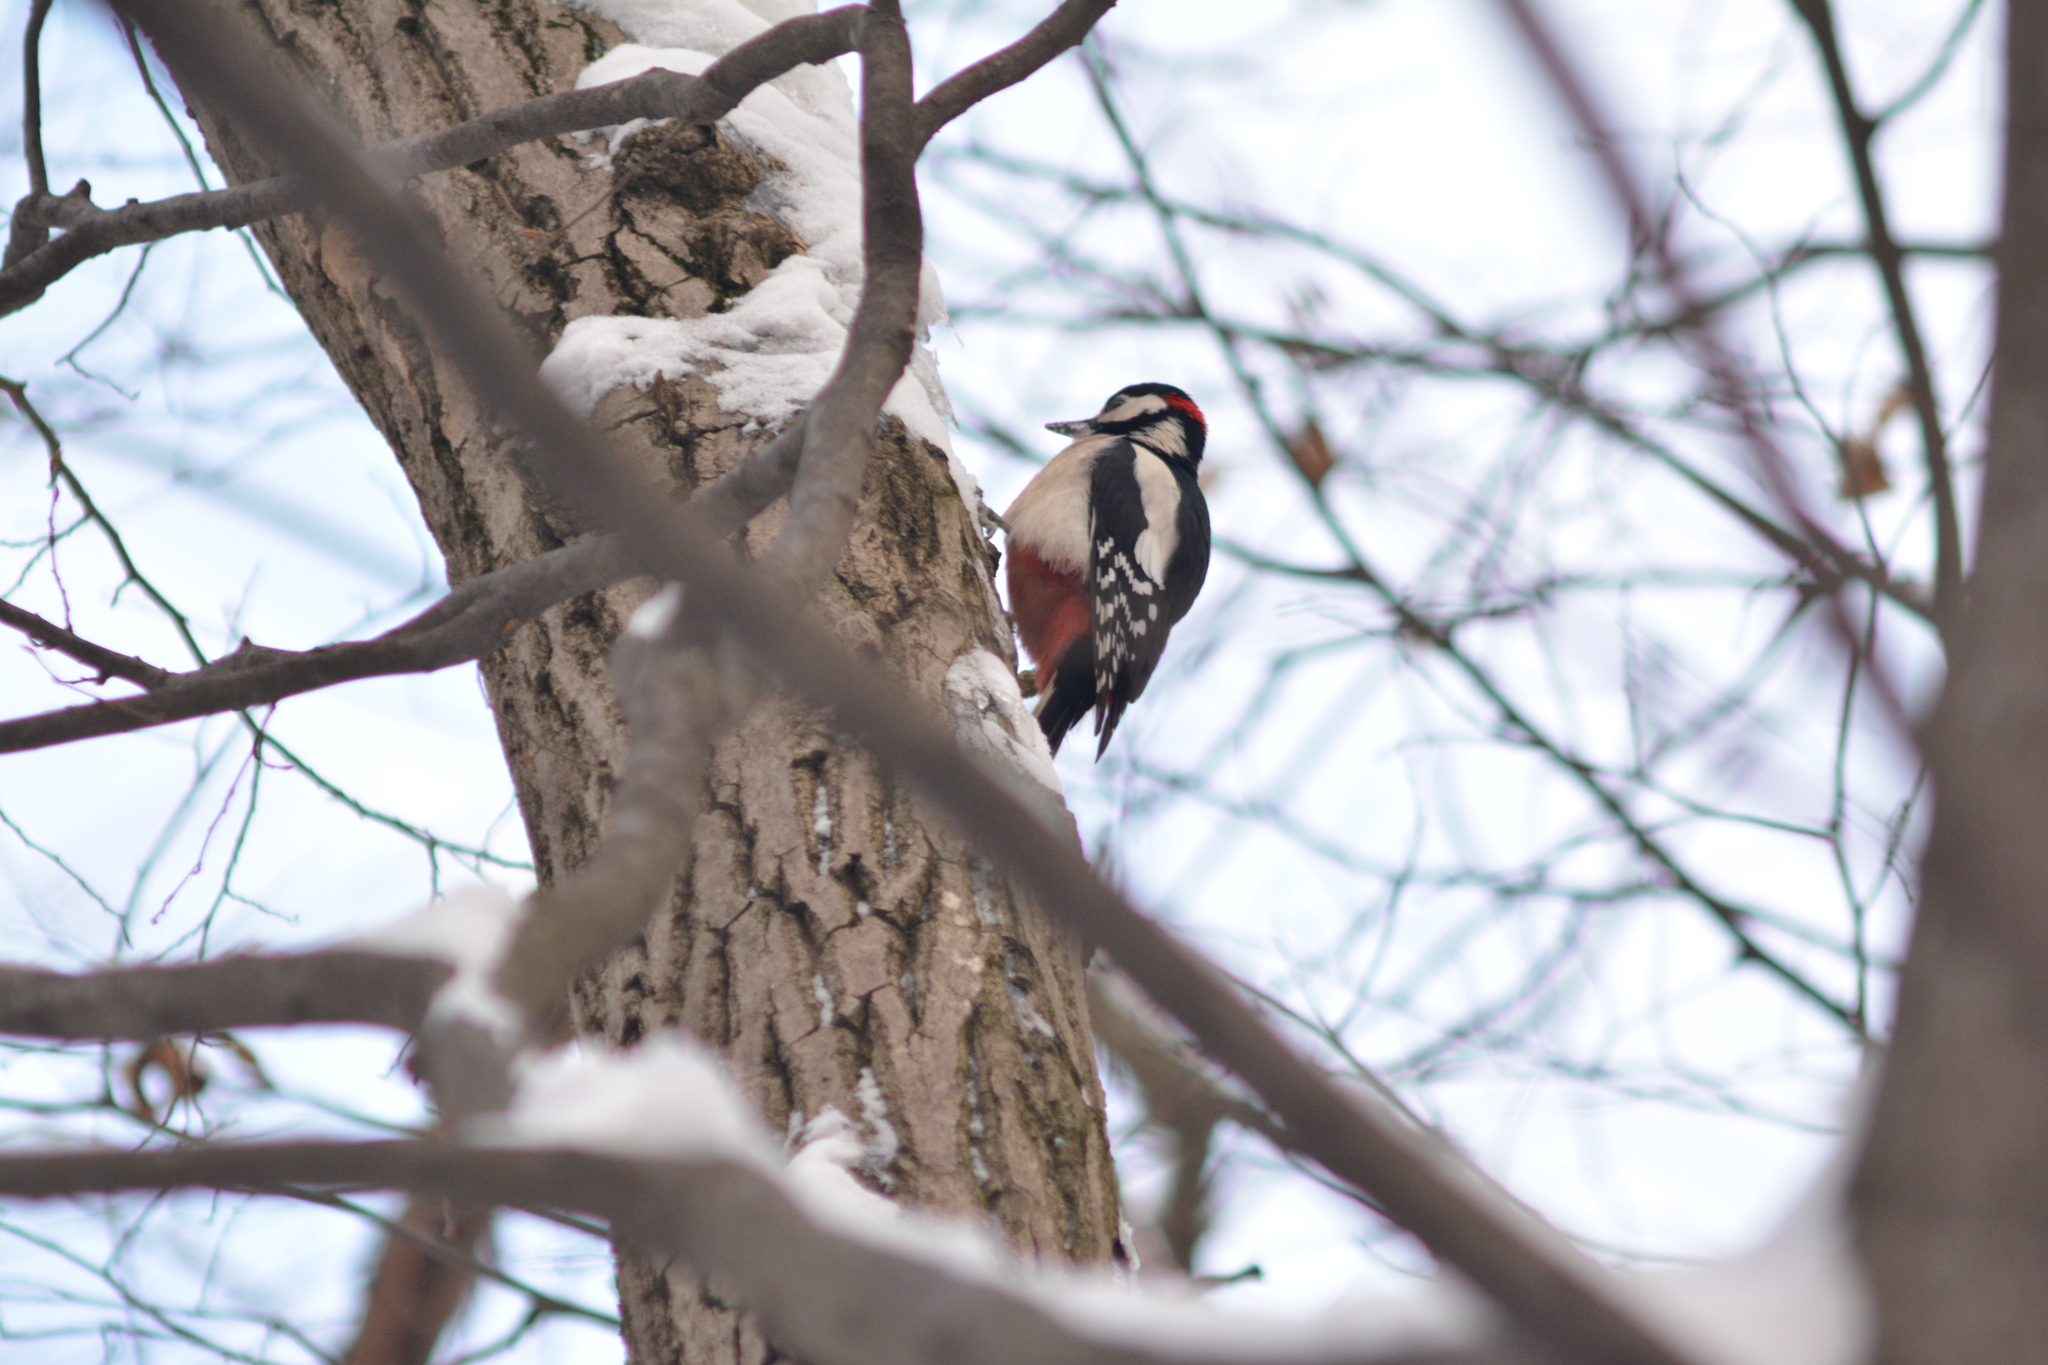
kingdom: Animalia
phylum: Chordata
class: Aves
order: Piciformes
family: Picidae
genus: Dendrocopos
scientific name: Dendrocopos major
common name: Great spotted woodpecker
